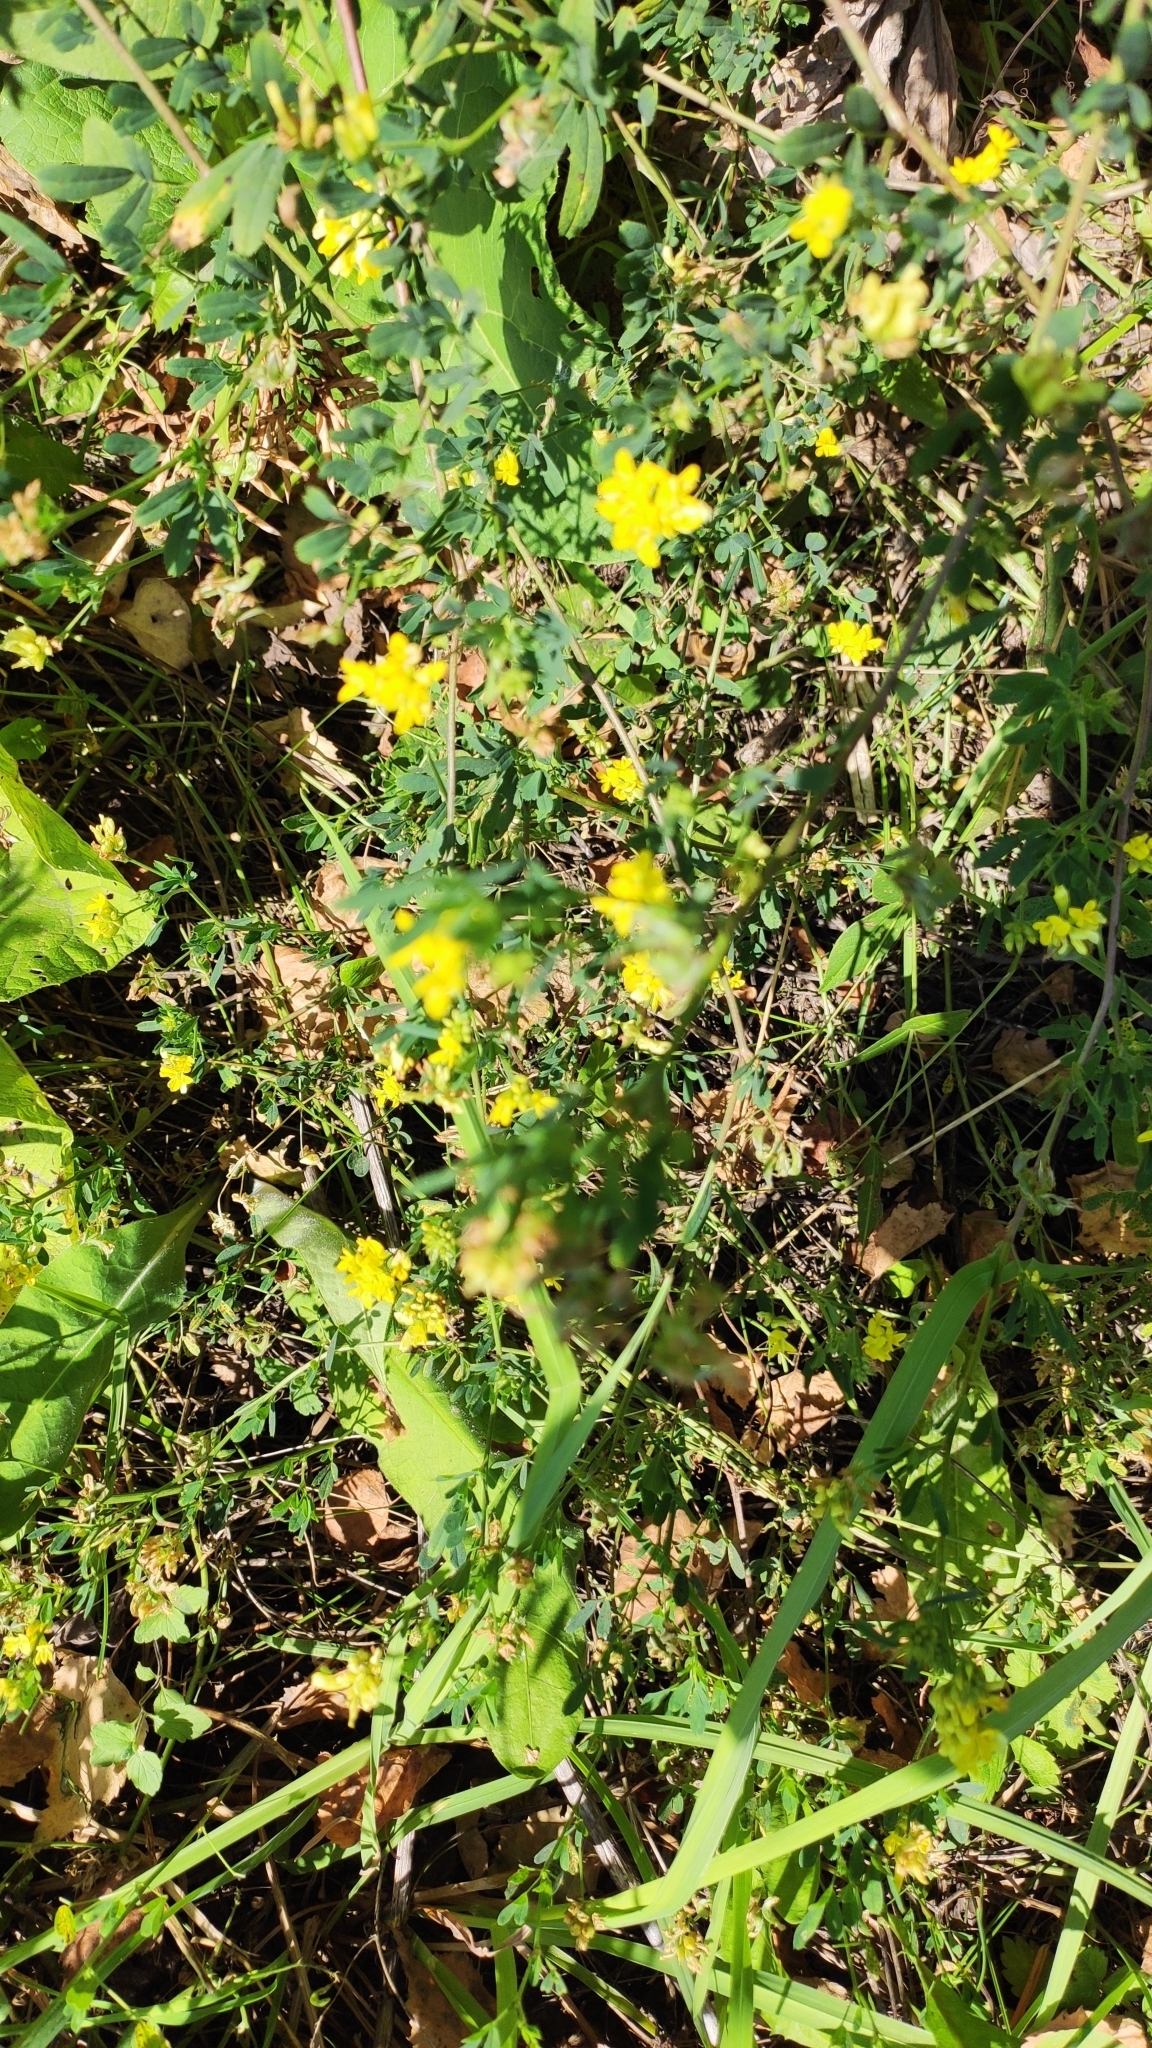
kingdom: Plantae
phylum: Tracheophyta
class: Magnoliopsida
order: Fabales
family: Fabaceae
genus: Medicago
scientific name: Medicago falcata
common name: Sickle medick
